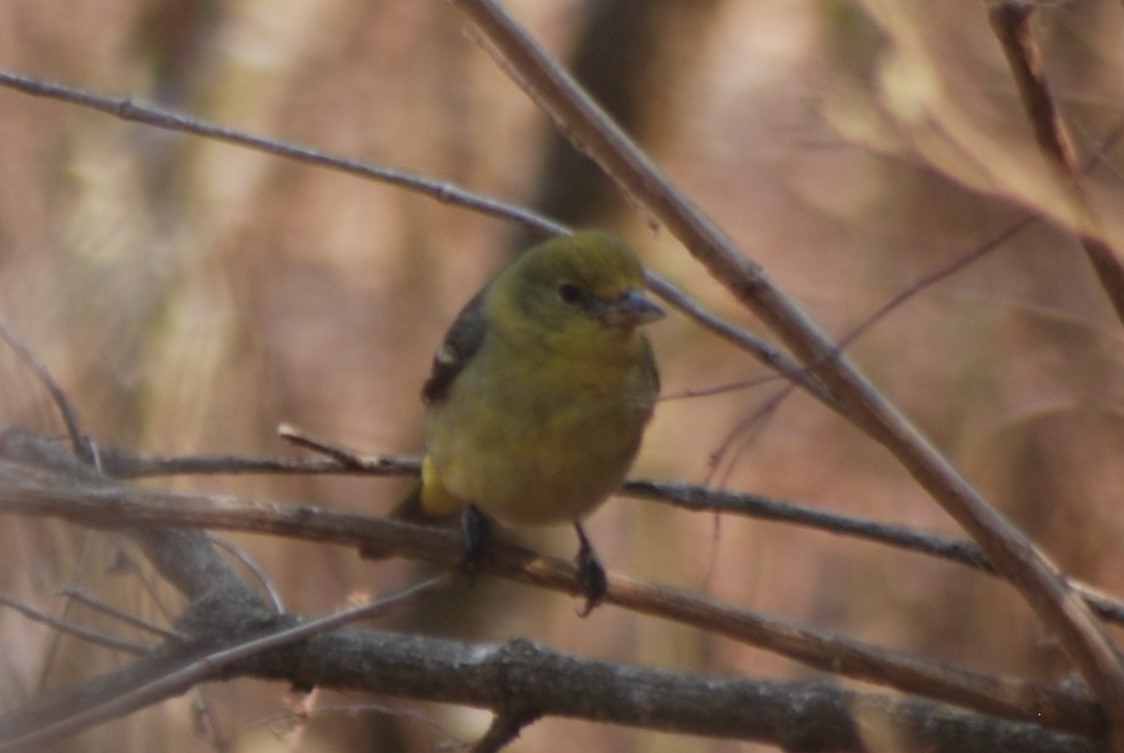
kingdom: Animalia
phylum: Chordata
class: Aves
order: Passeriformes
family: Cardinalidae
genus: Piranga
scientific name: Piranga ludoviciana
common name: Western tanager
